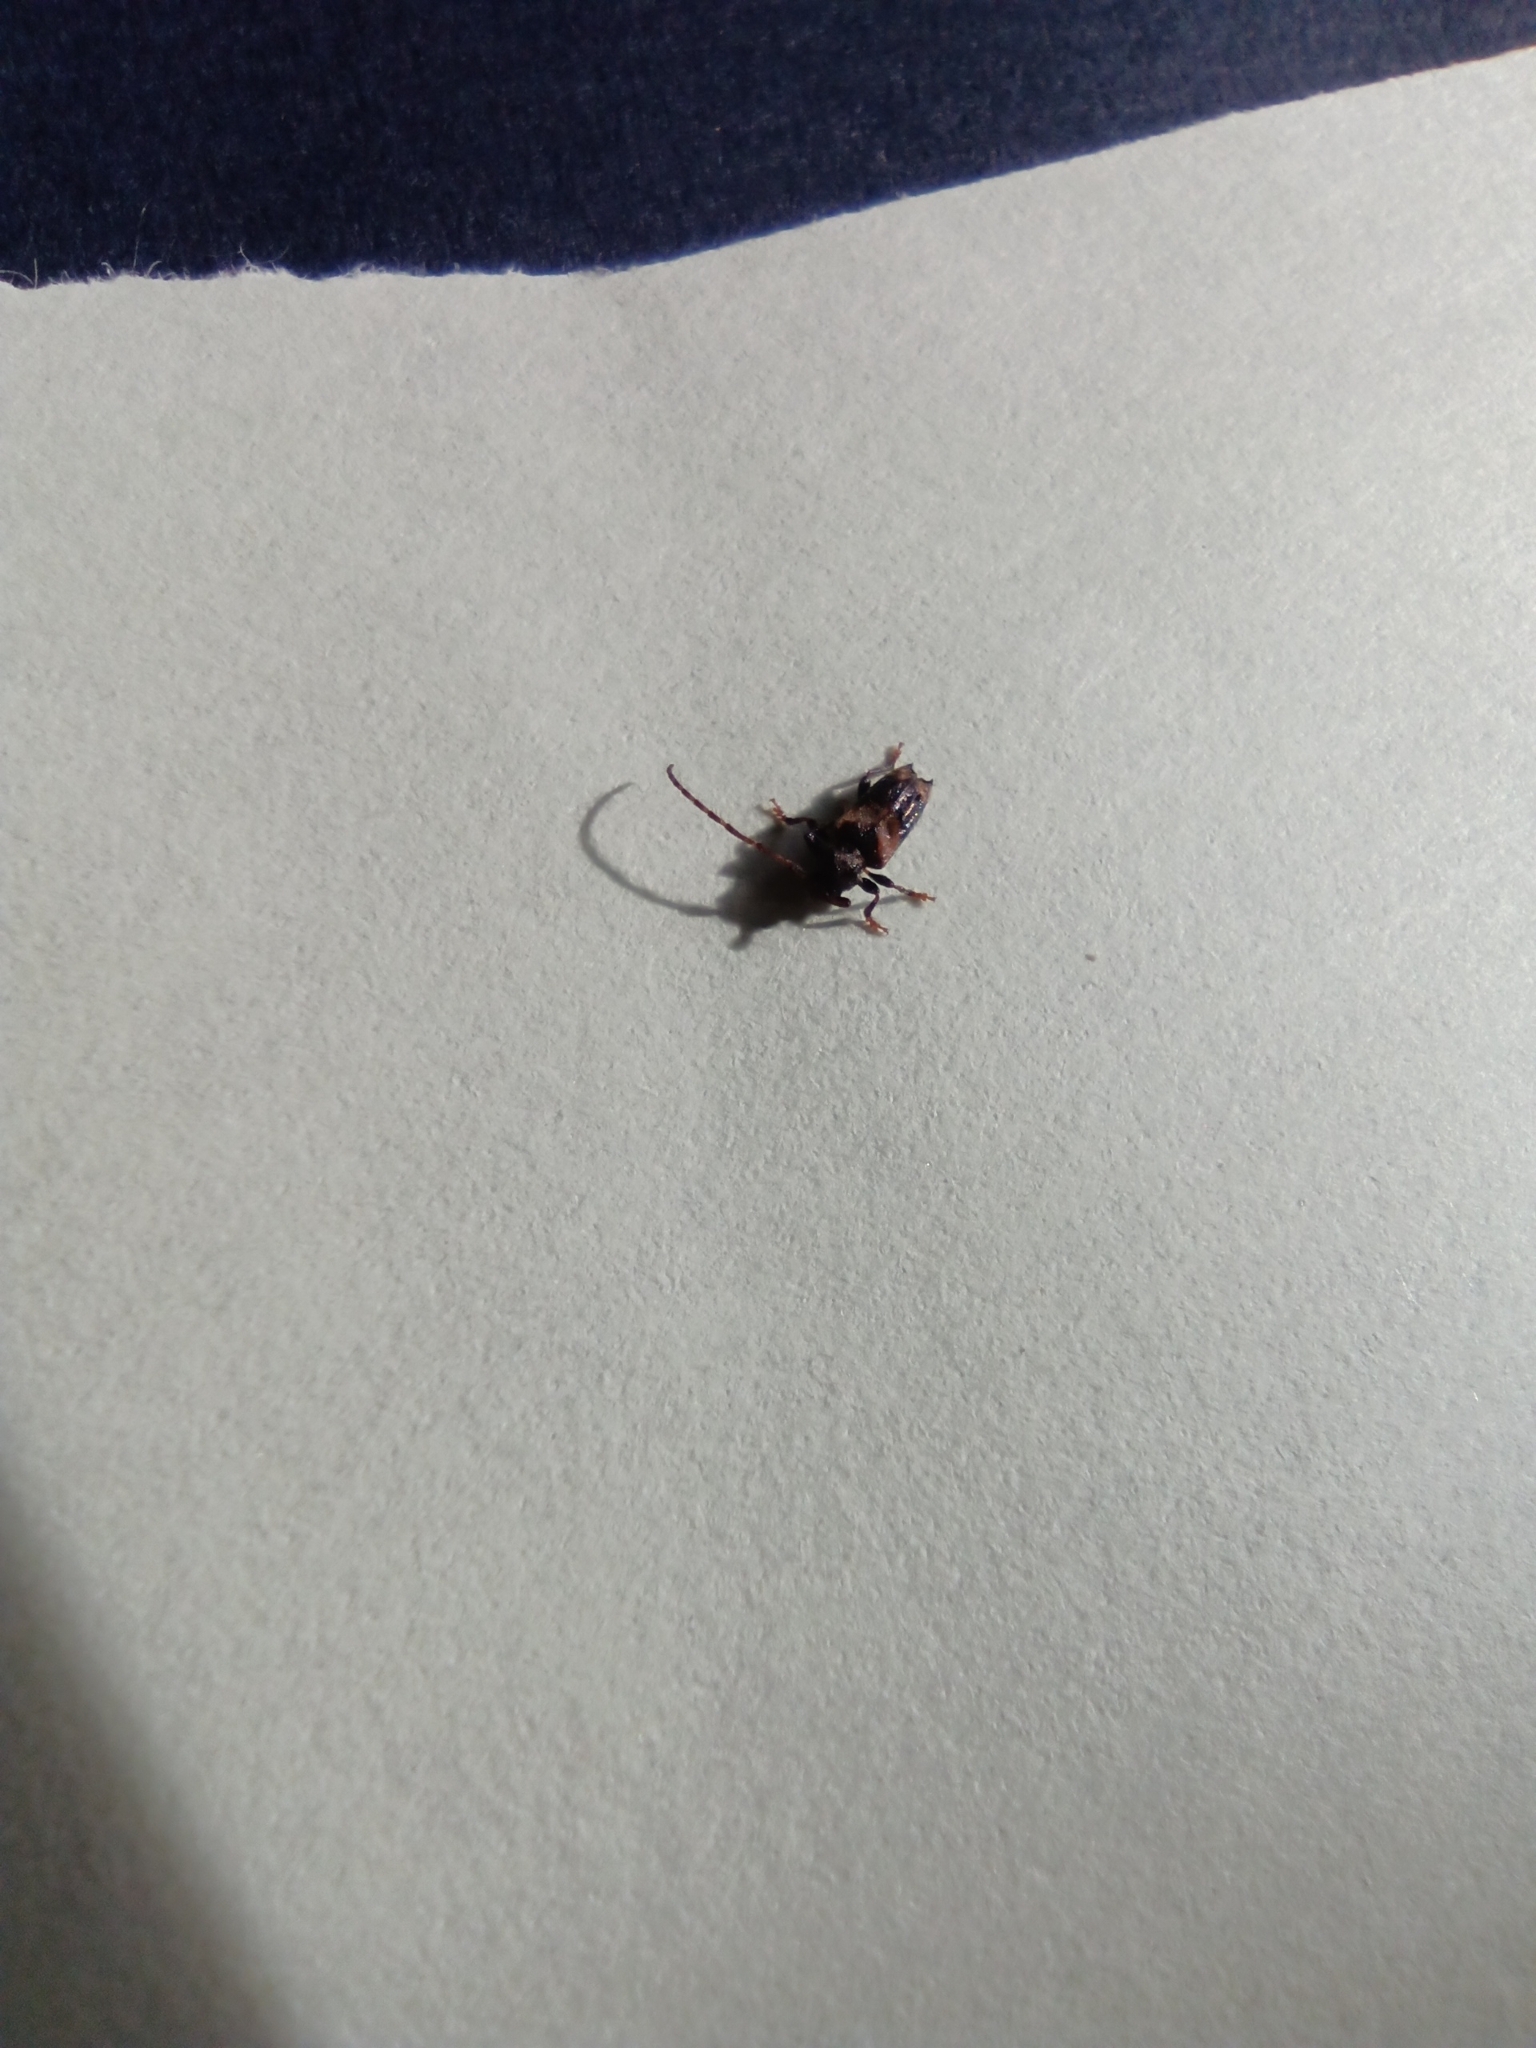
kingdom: Animalia
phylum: Arthropoda
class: Insecta
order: Coleoptera
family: Cerambycidae
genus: Pogonocherus
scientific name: Pogonocherus hispidus
